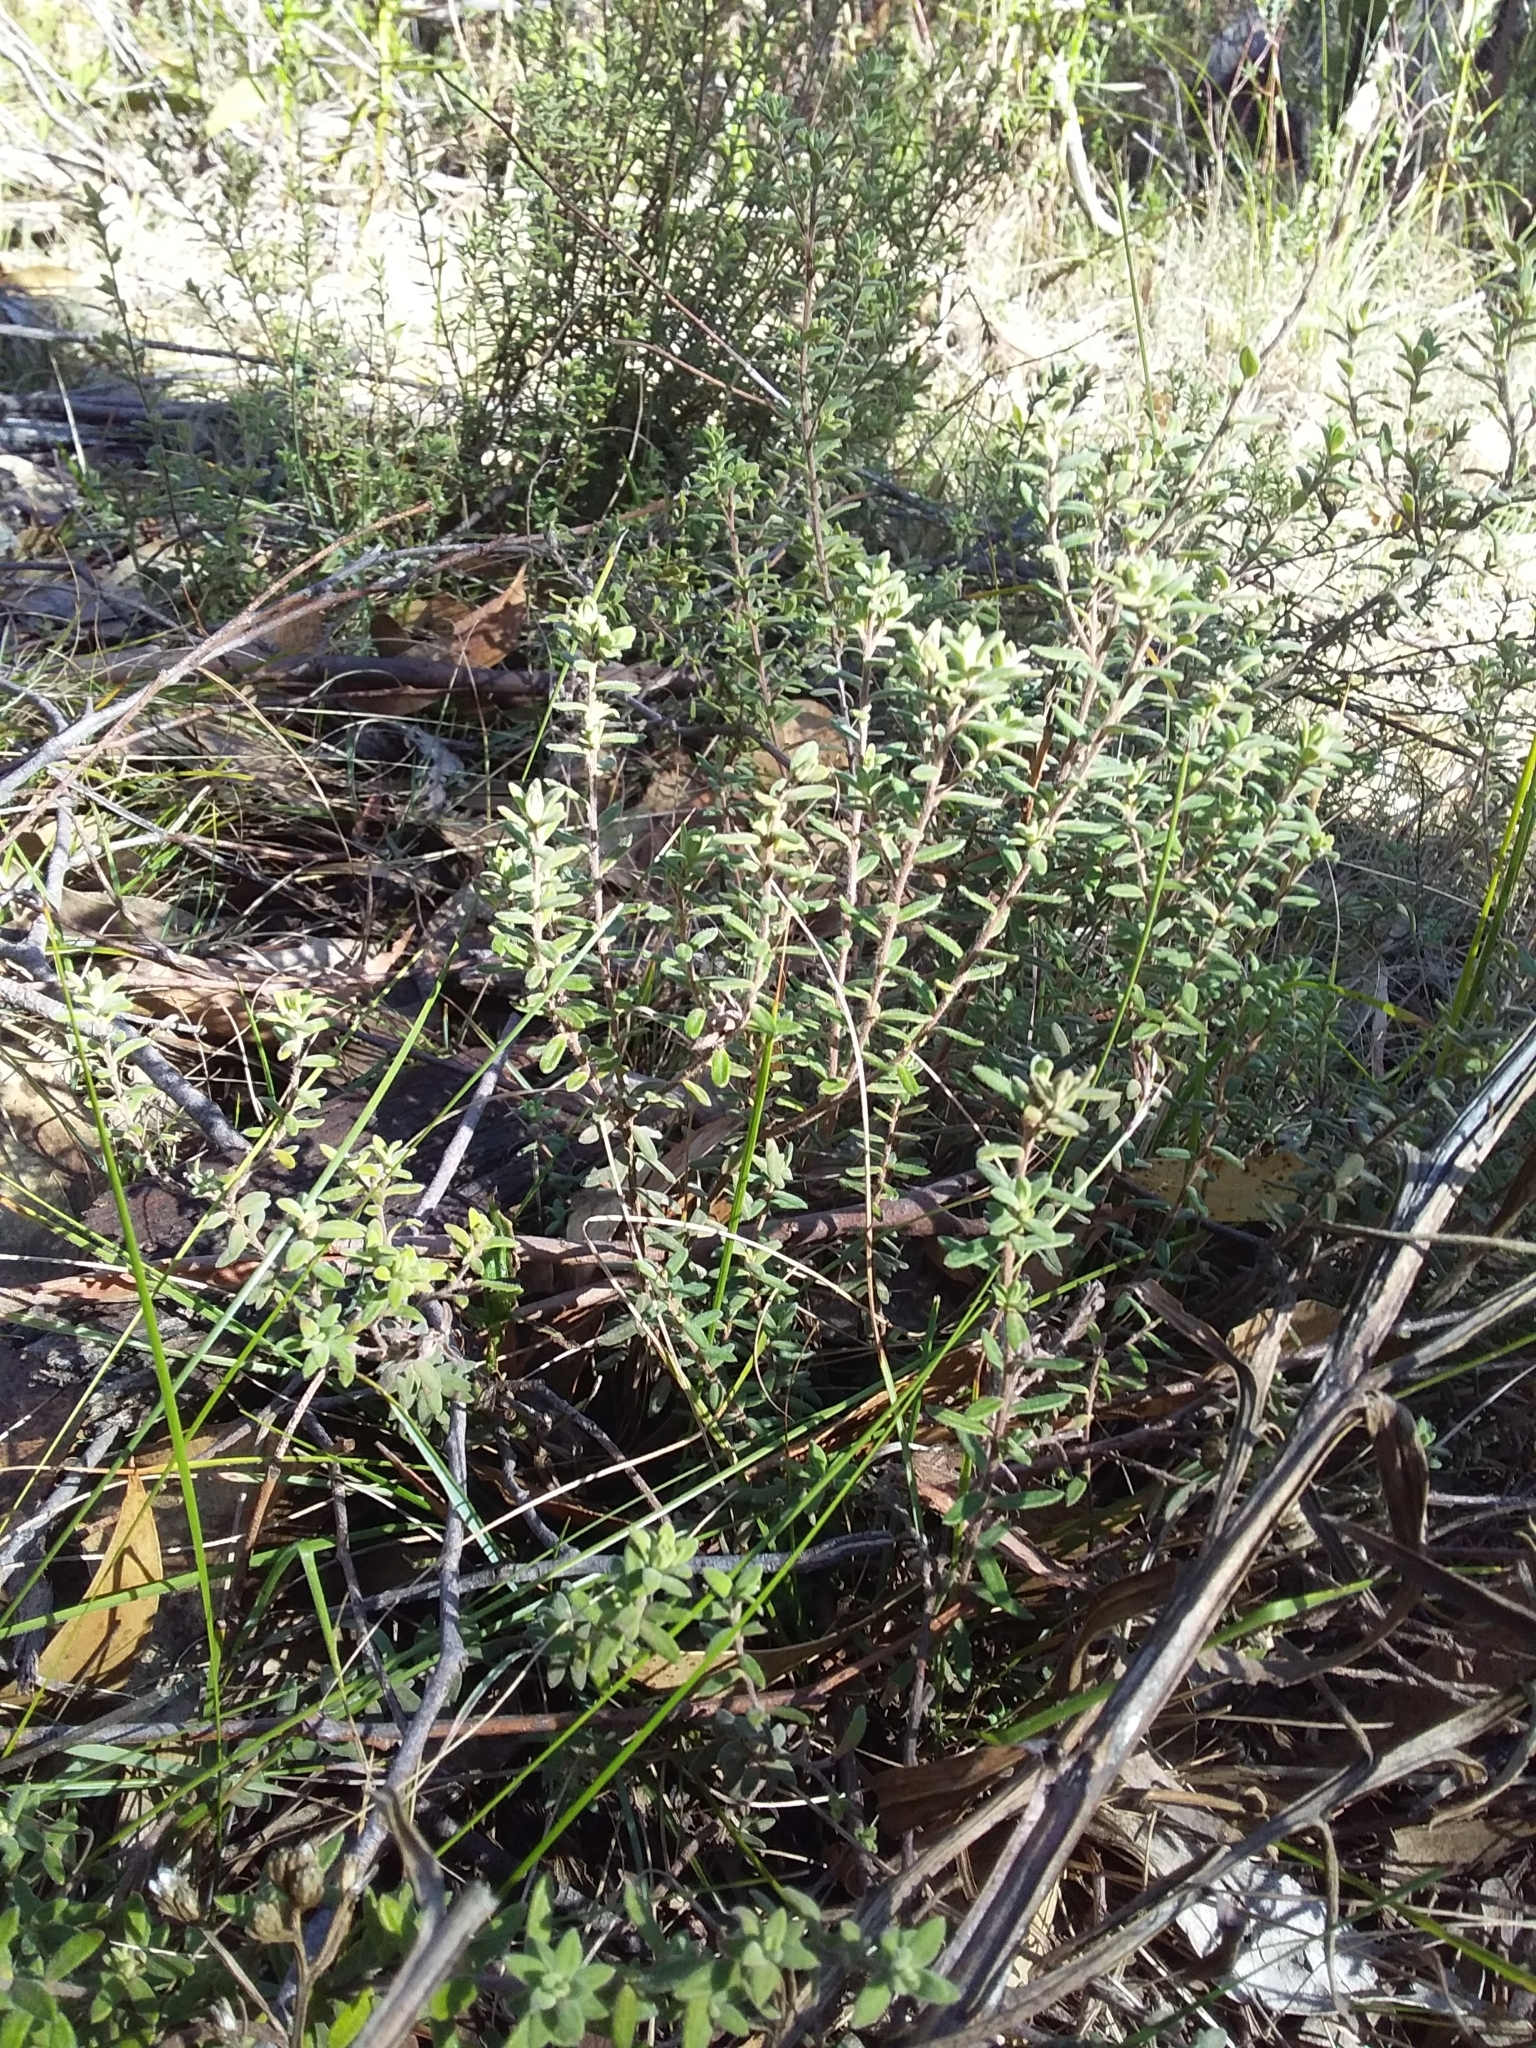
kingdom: Plantae
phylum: Tracheophyta
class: Magnoliopsida
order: Dilleniales
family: Dilleniaceae
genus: Hibbertia
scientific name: Hibbertia crinita
